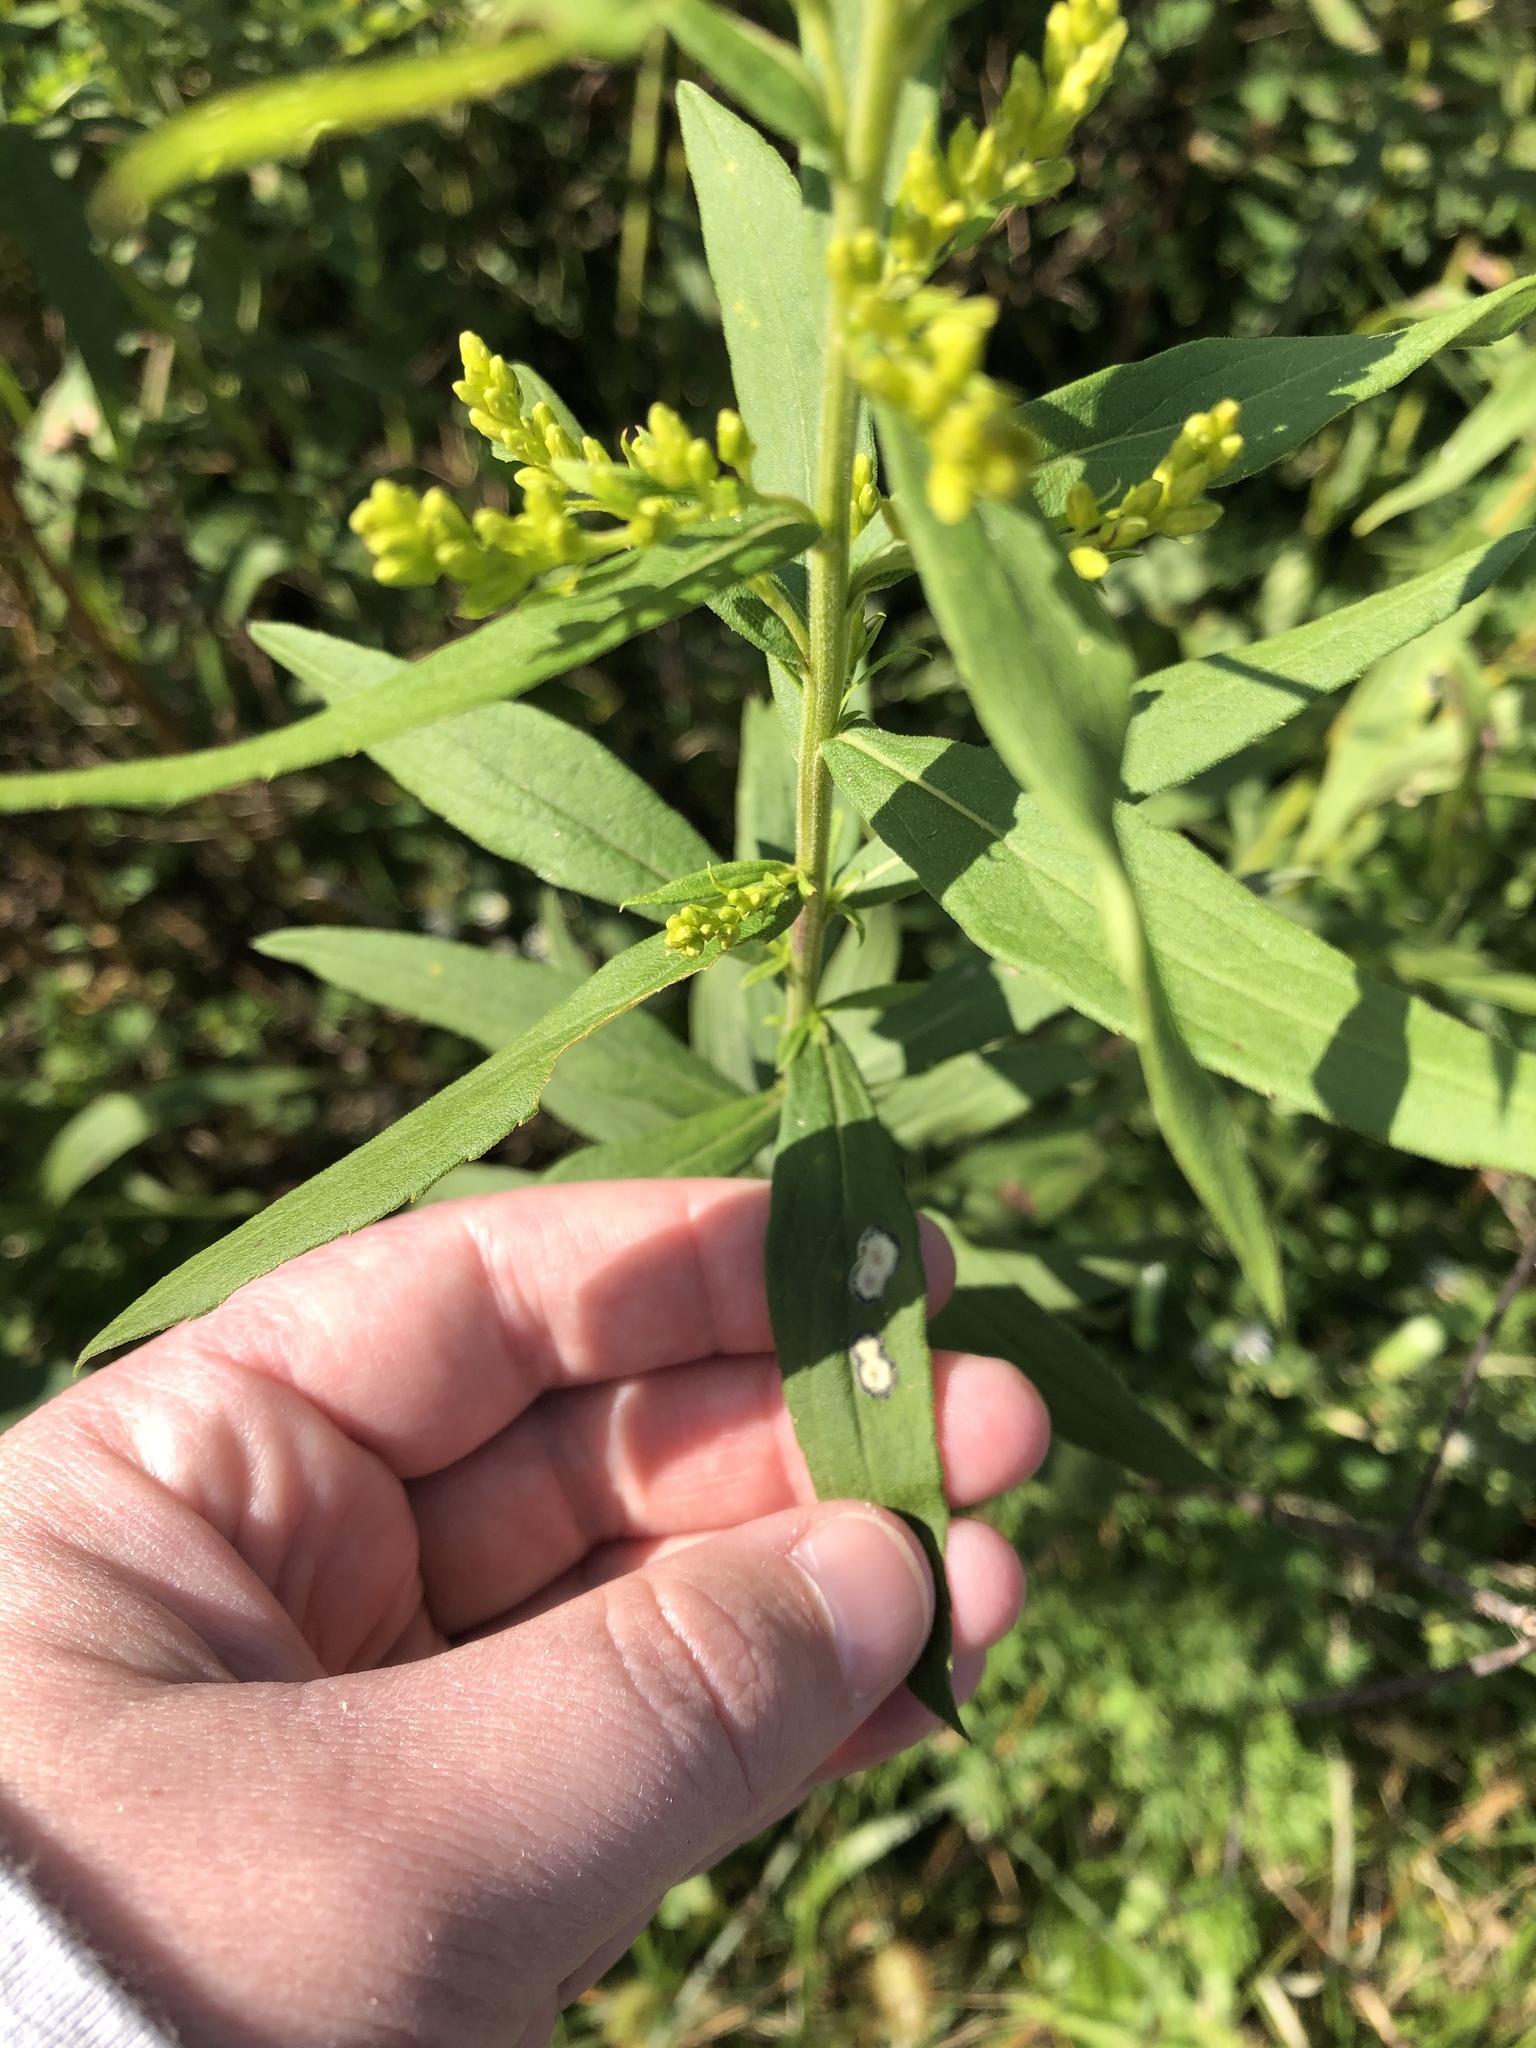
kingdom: Animalia
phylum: Arthropoda
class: Insecta
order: Diptera
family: Cecidomyiidae
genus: Asteromyia
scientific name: Asteromyia carbonifera
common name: Carbonifera goldenrod gall midge
